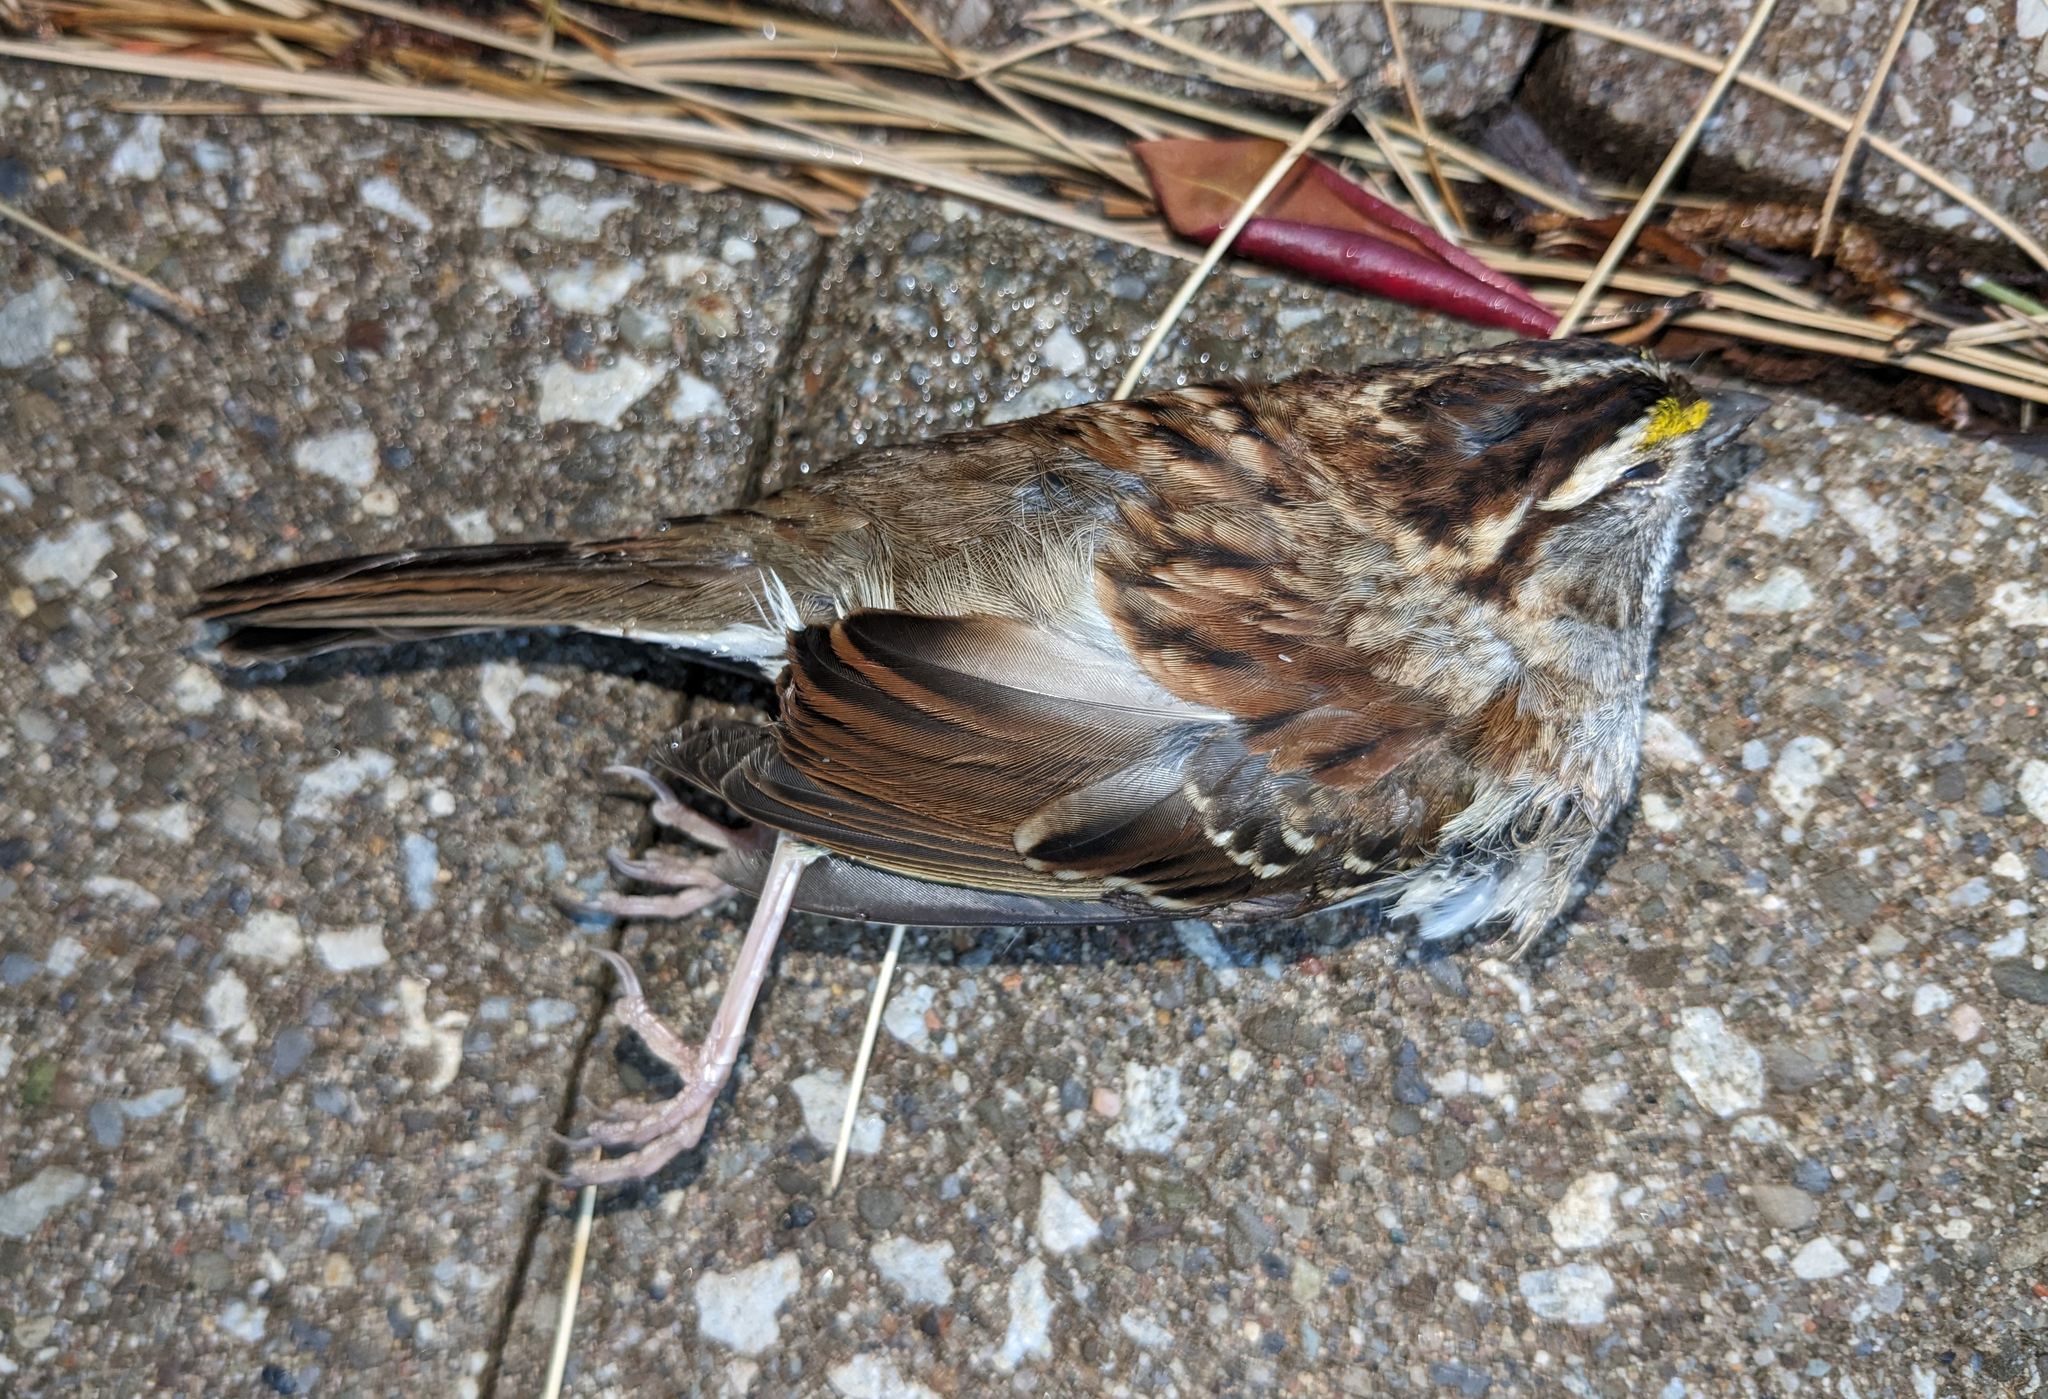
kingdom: Animalia
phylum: Chordata
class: Aves
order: Passeriformes
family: Passerellidae
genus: Zonotrichia
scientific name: Zonotrichia albicollis
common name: White-throated sparrow
